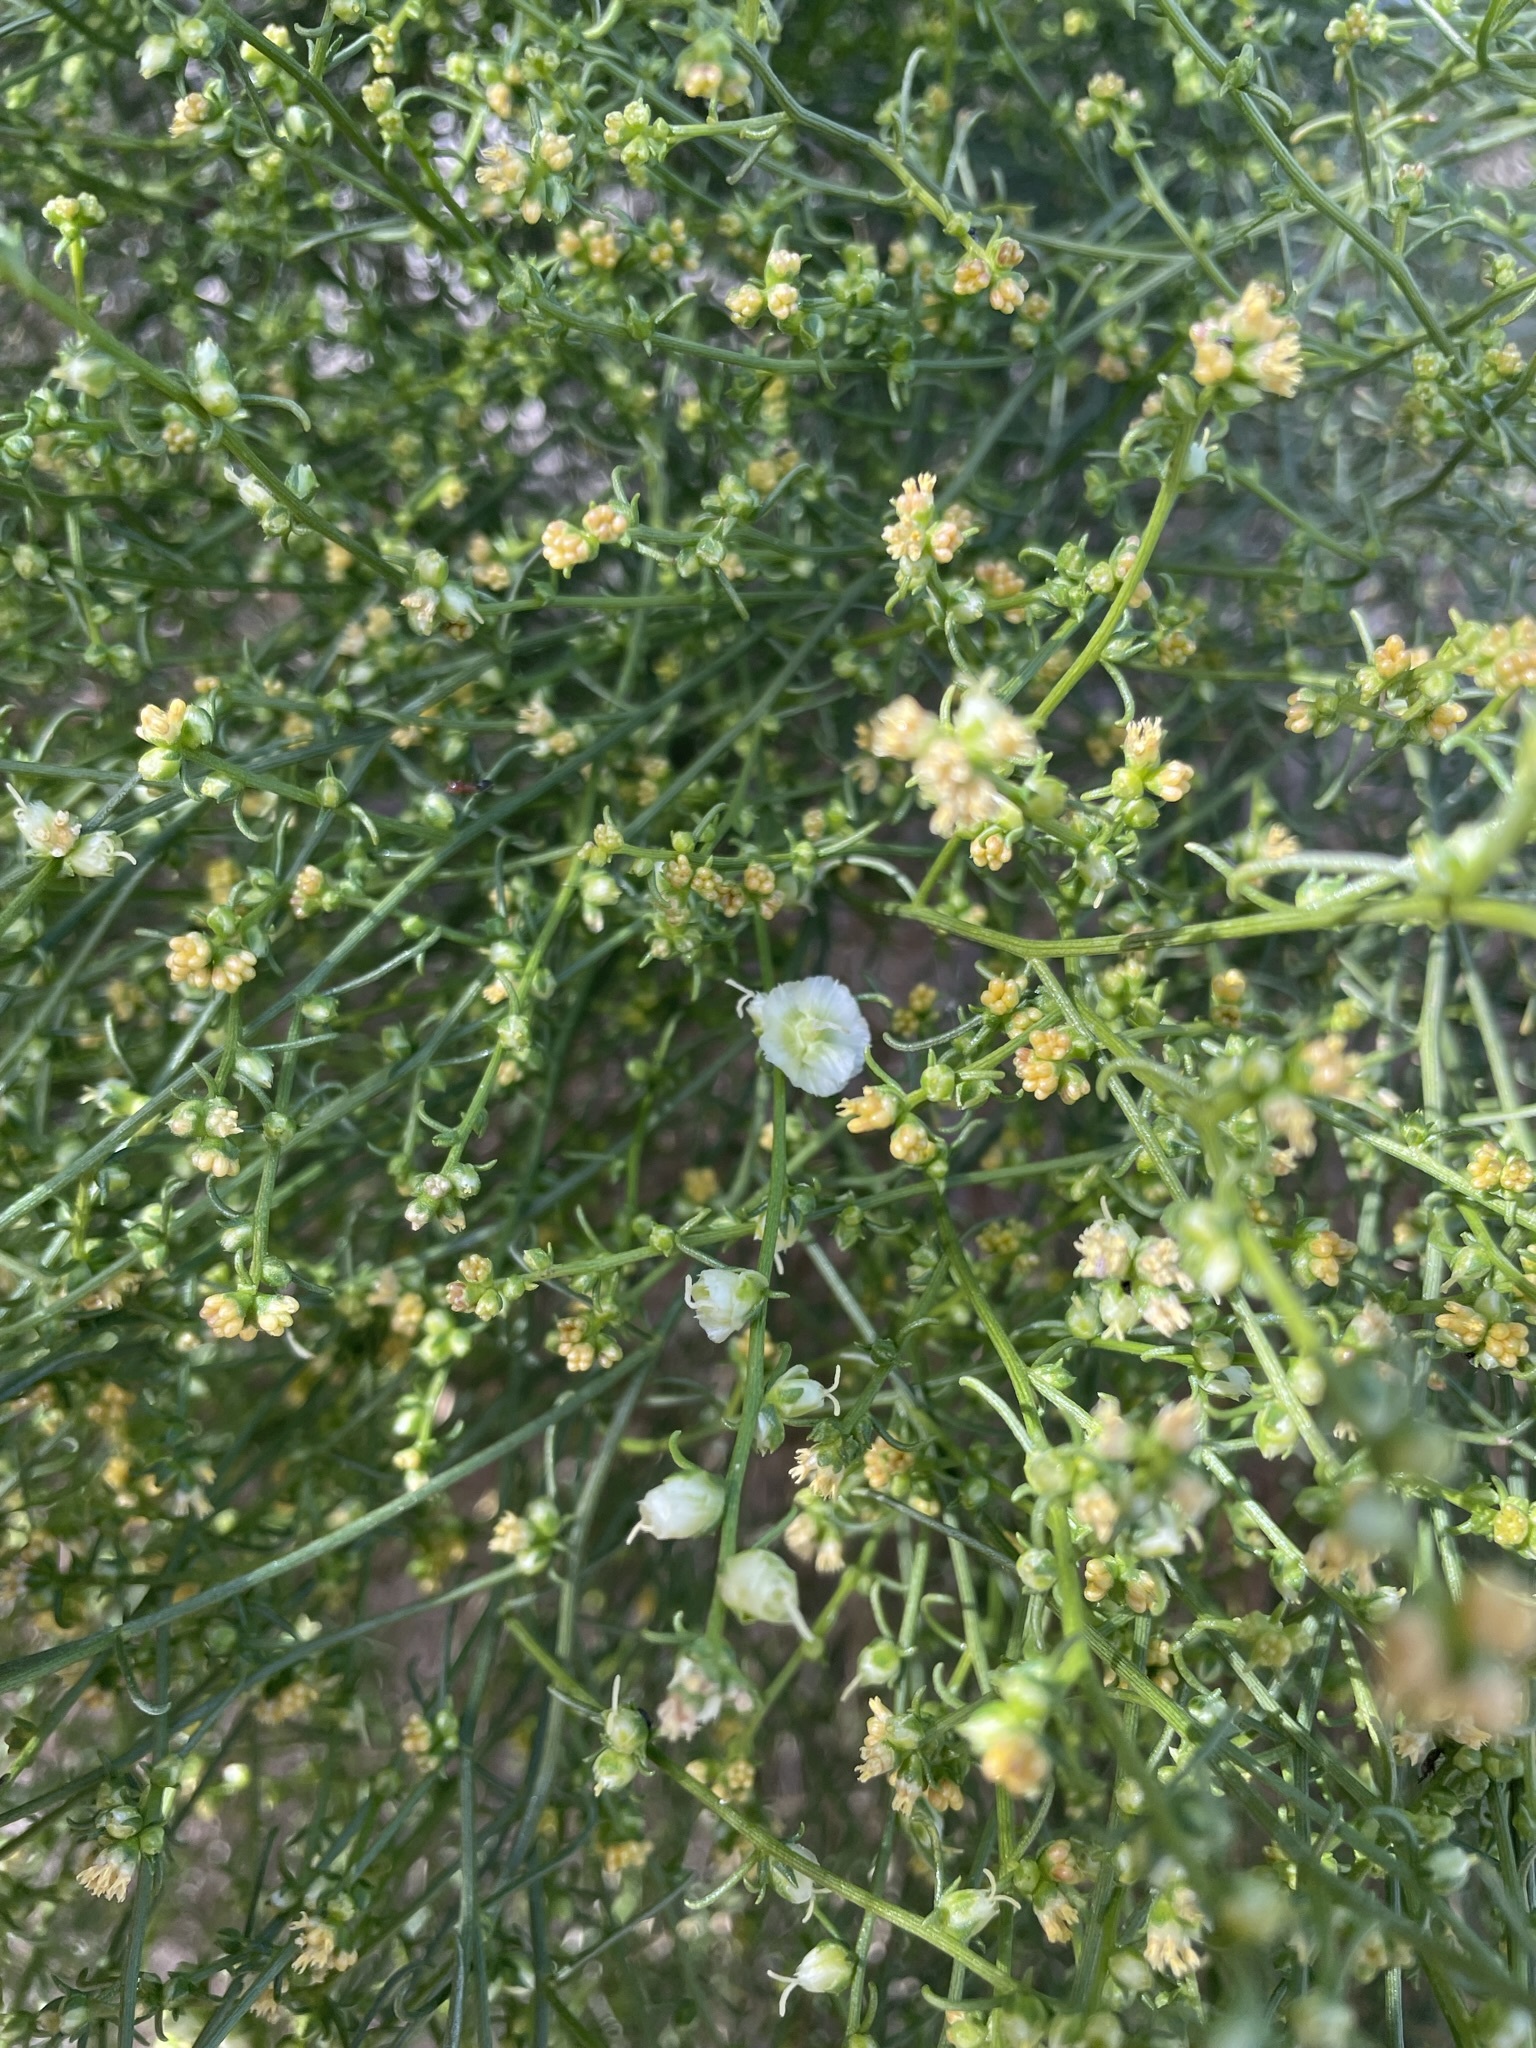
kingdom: Plantae
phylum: Tracheophyta
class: Magnoliopsida
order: Asterales
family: Asteraceae
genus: Ambrosia
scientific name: Ambrosia salsola
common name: Burrobrush
